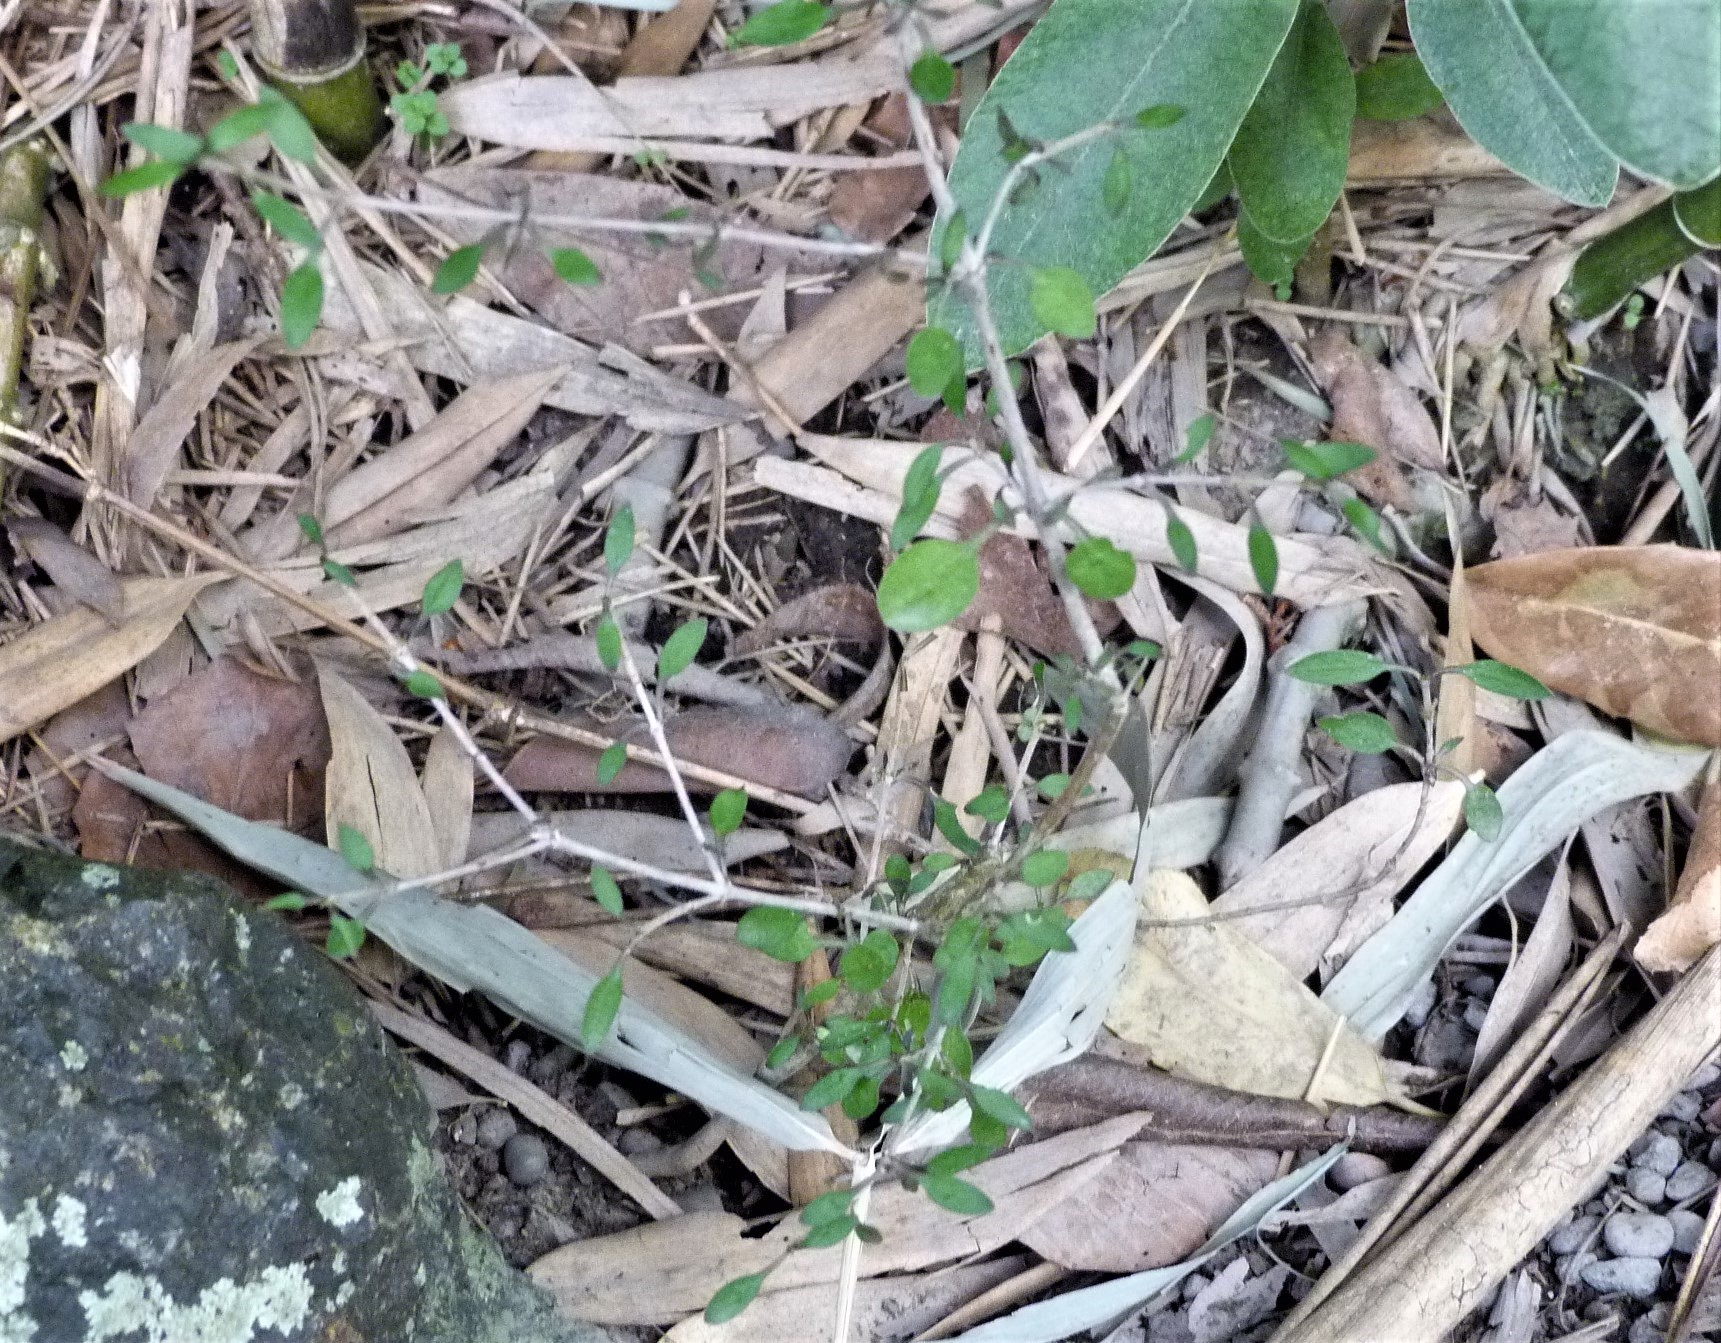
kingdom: Plantae
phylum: Tracheophyta
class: Magnoliopsida
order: Gentianales
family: Rubiaceae
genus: Coprosma
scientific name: Coprosma propinqua
